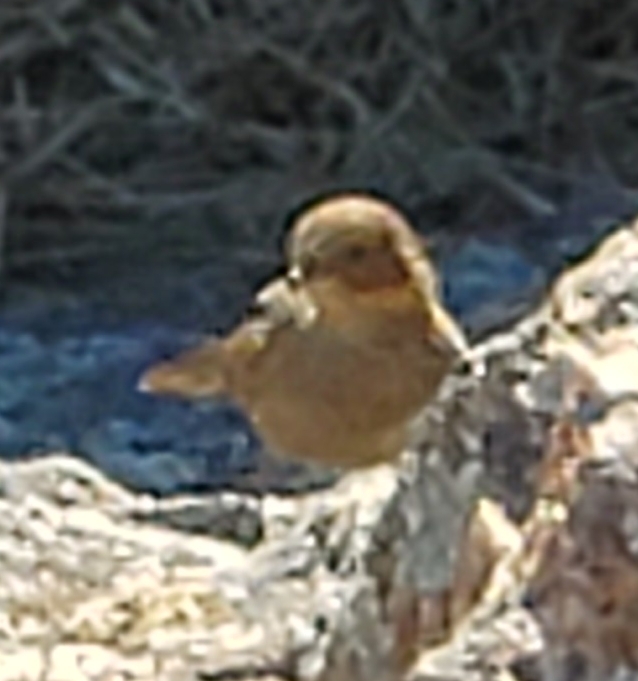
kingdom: Animalia
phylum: Chordata
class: Aves
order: Passeriformes
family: Passerellidae
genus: Melozone
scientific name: Melozone crissalis
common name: California towhee
